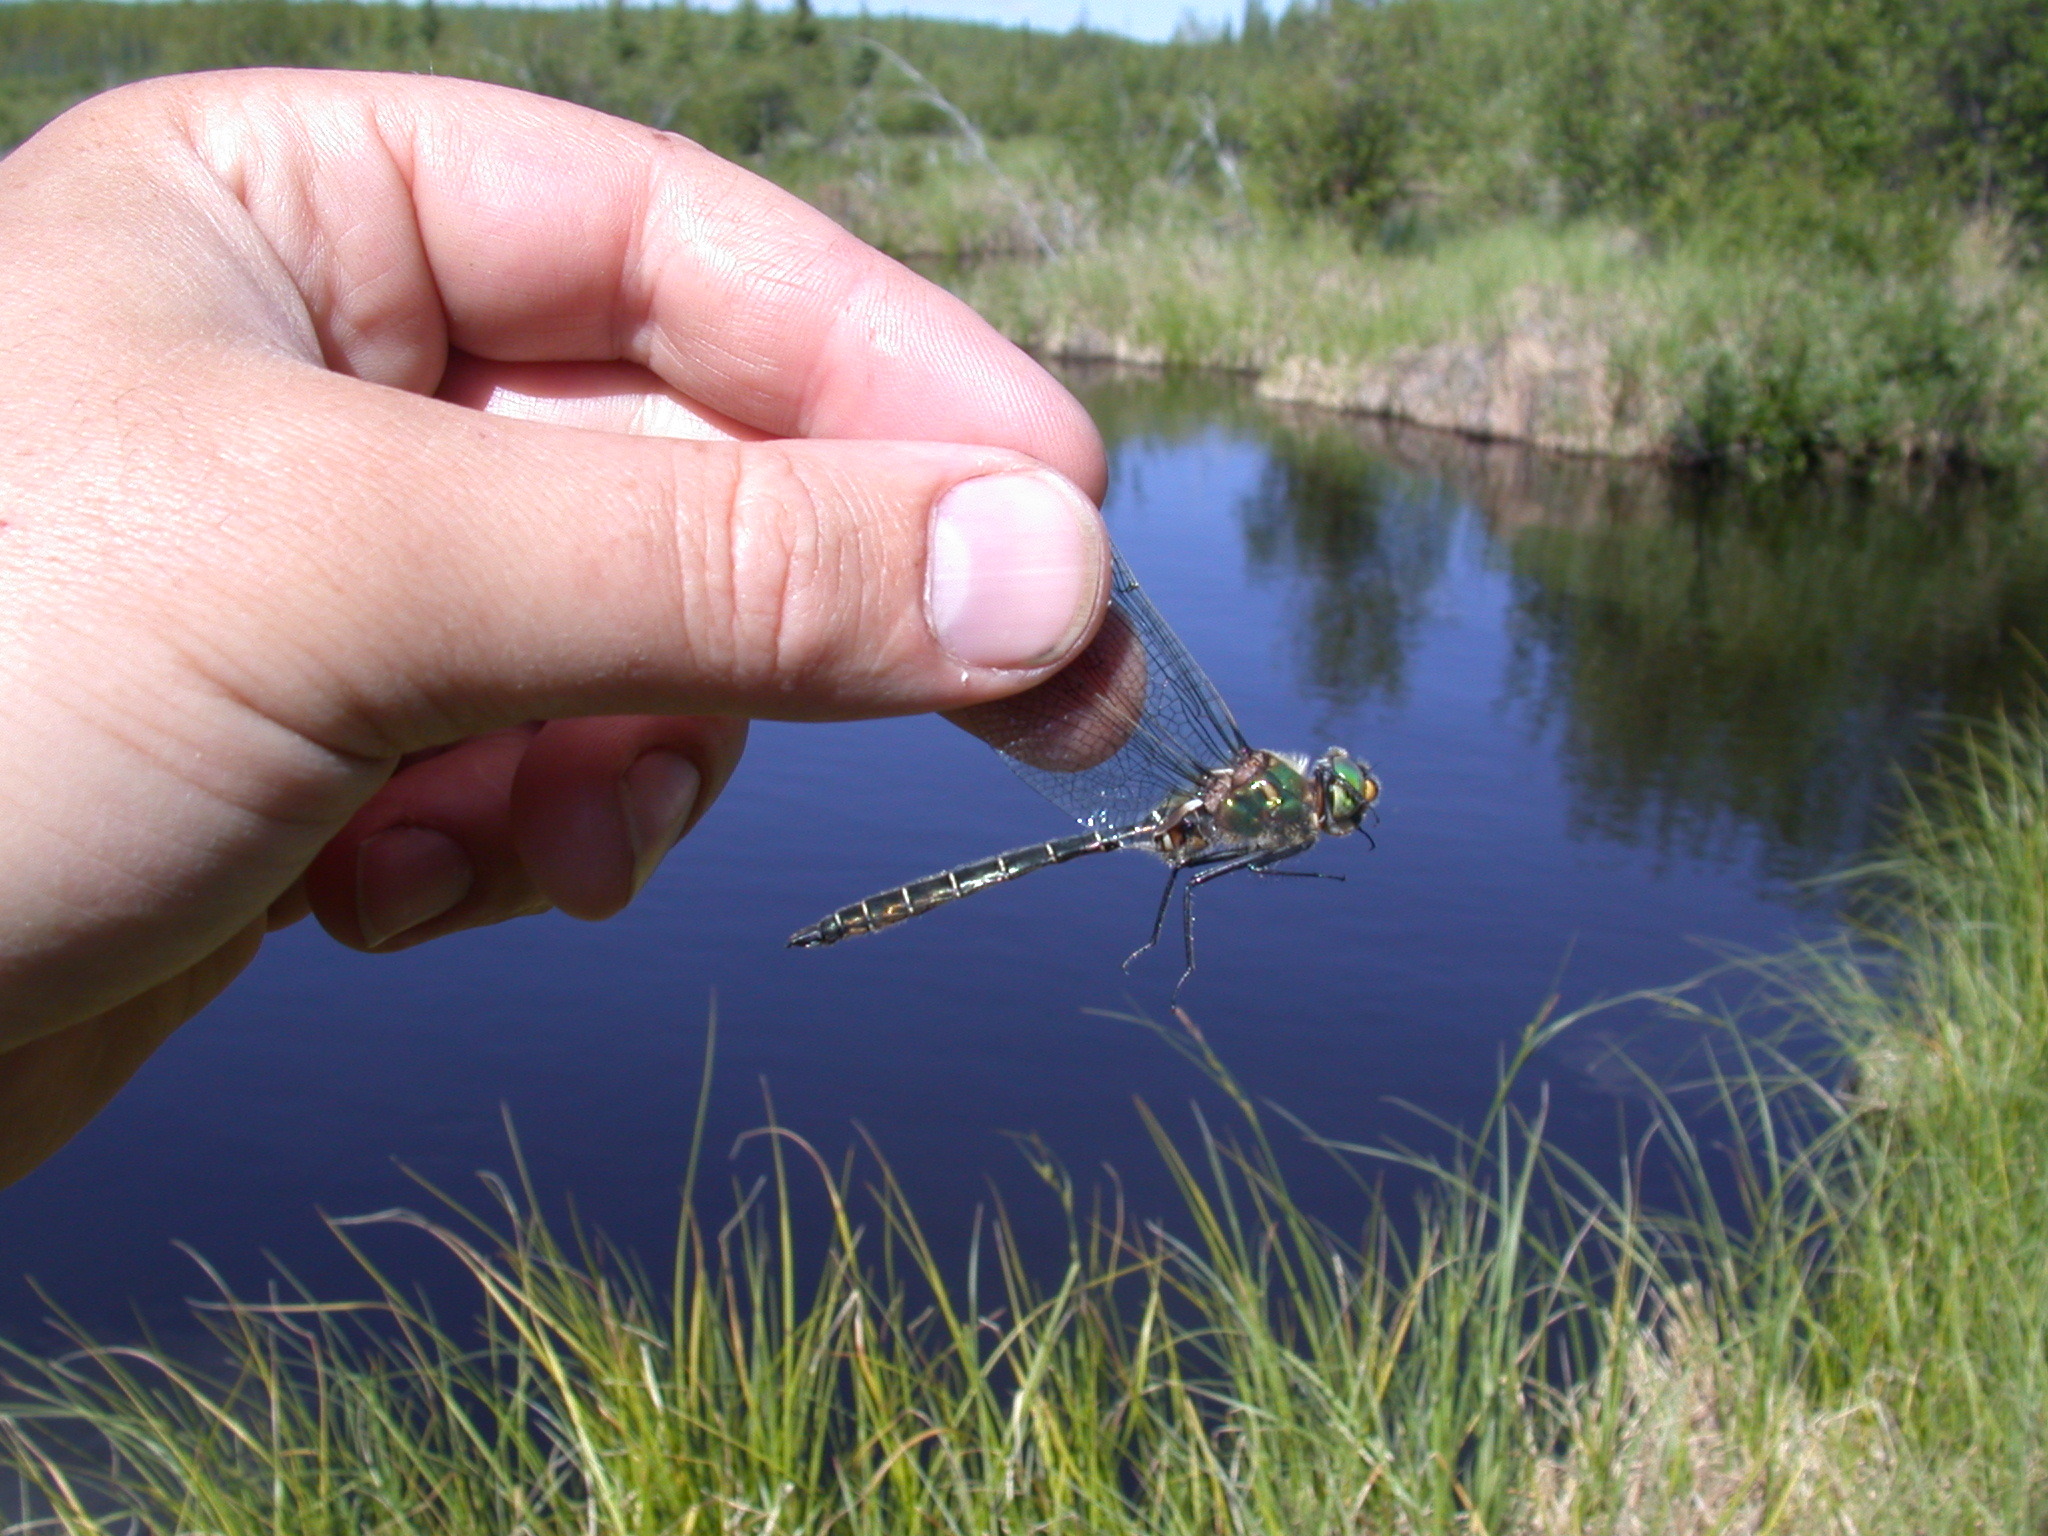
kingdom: Animalia
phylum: Arthropoda
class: Insecta
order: Odonata
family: Corduliidae
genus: Somatochlora
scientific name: Somatochlora hudsonica
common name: Hudsonian emerald
